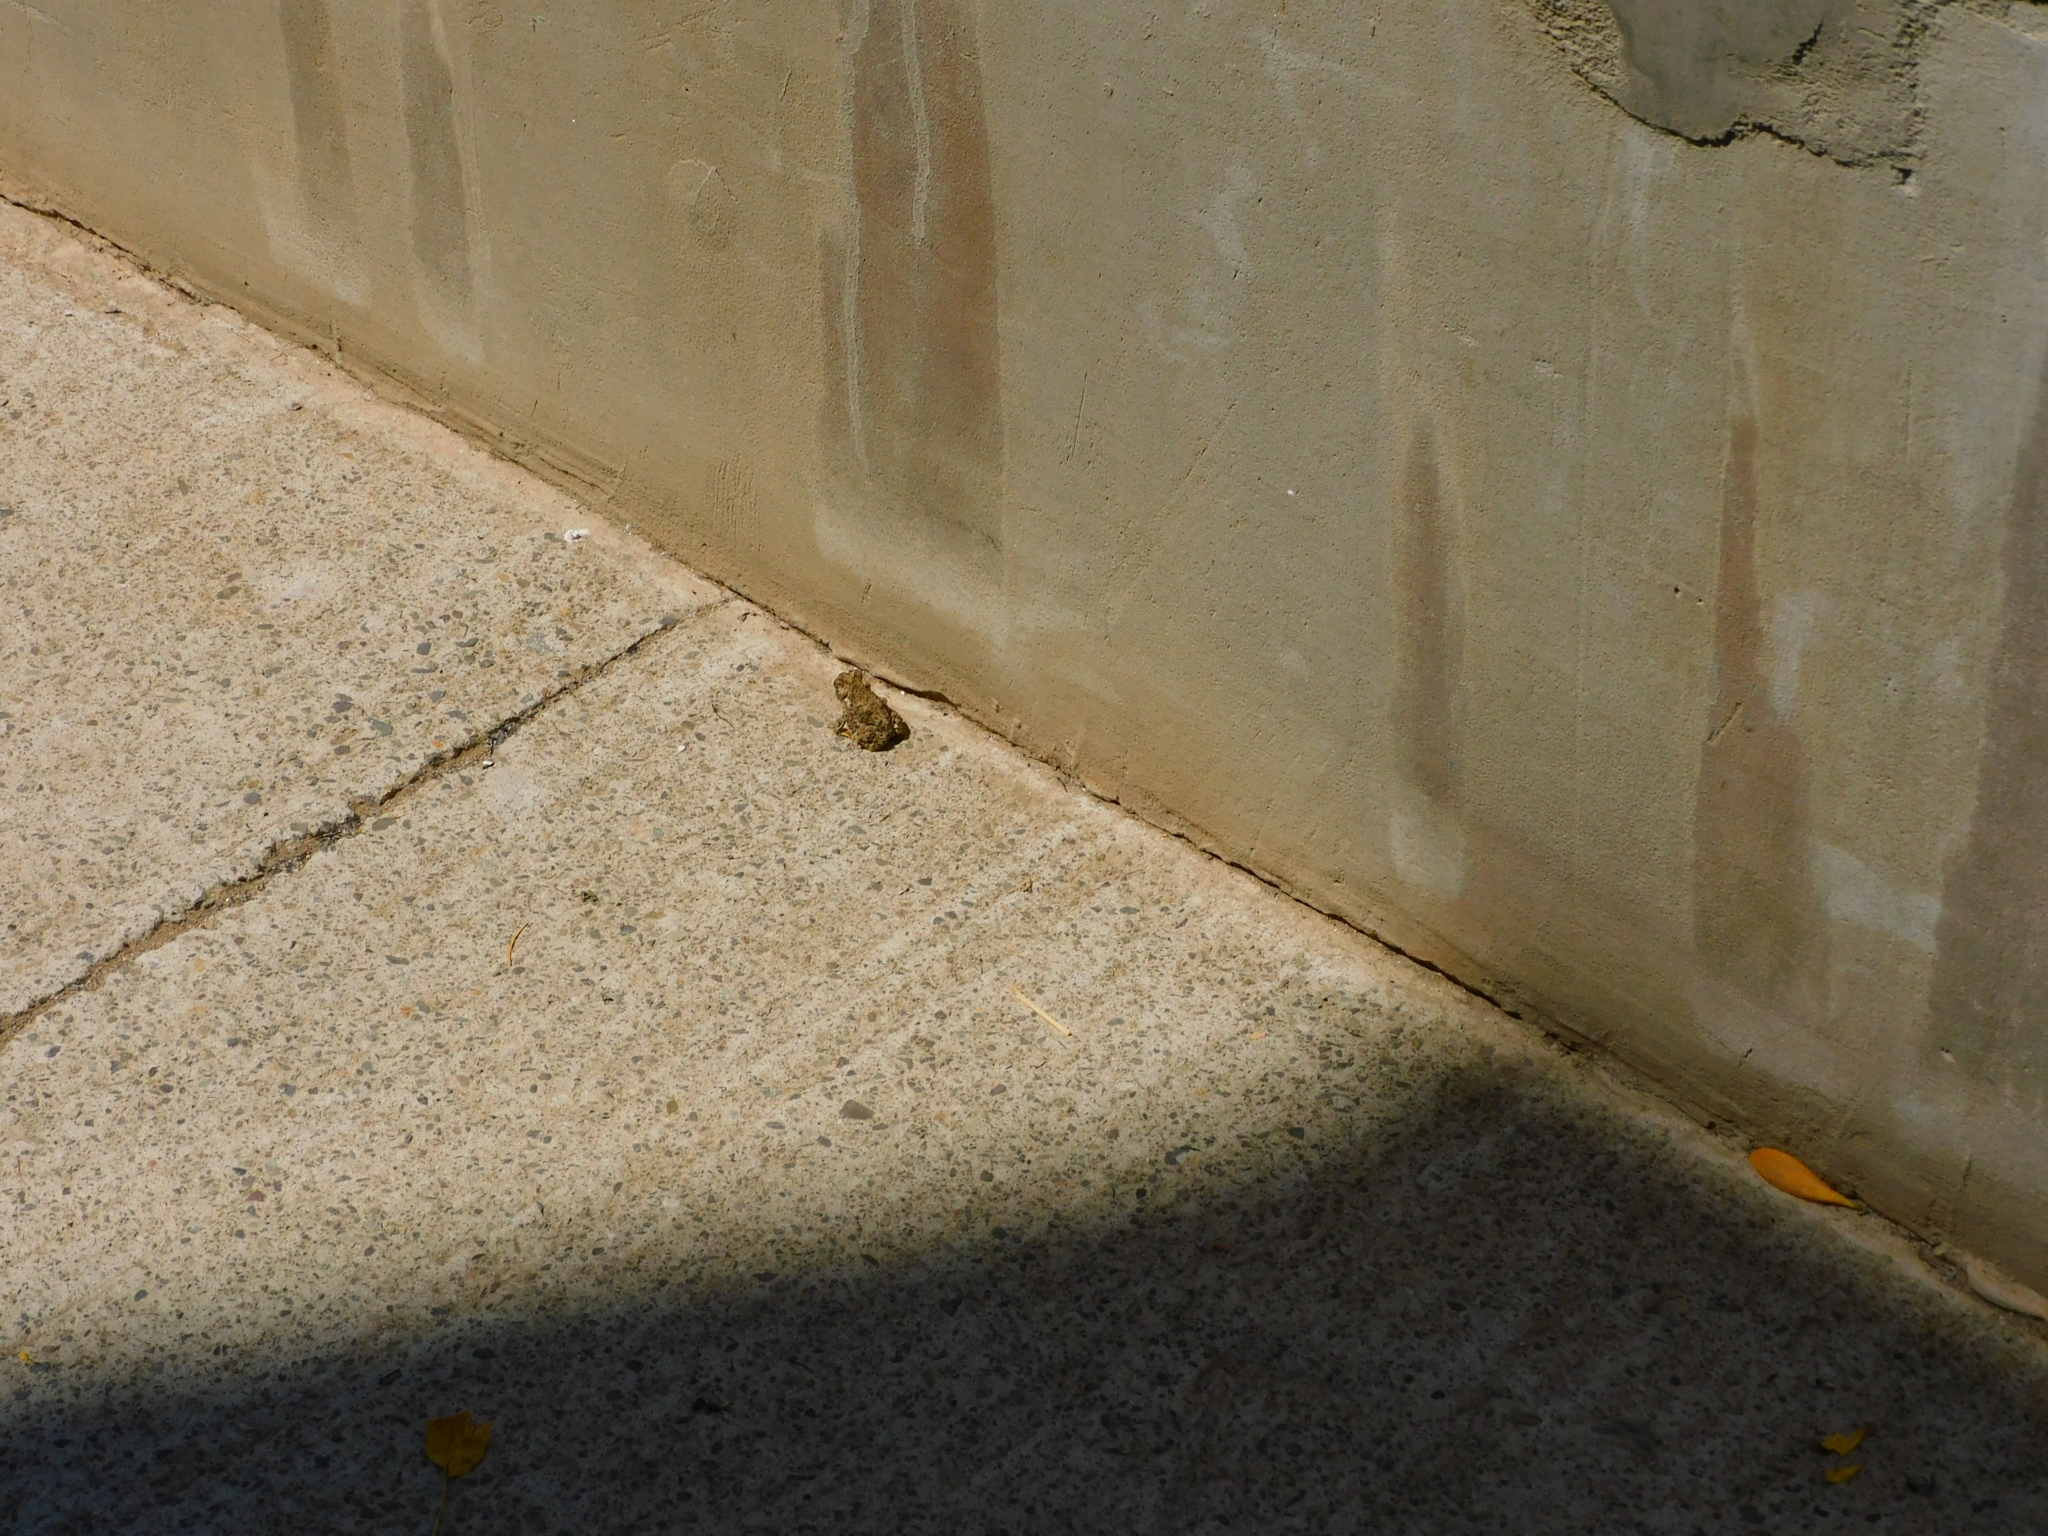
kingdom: Animalia
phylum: Chordata
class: Amphibia
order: Anura
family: Bufonidae
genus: Rhinella
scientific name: Rhinella arunco
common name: Concepcion toad
